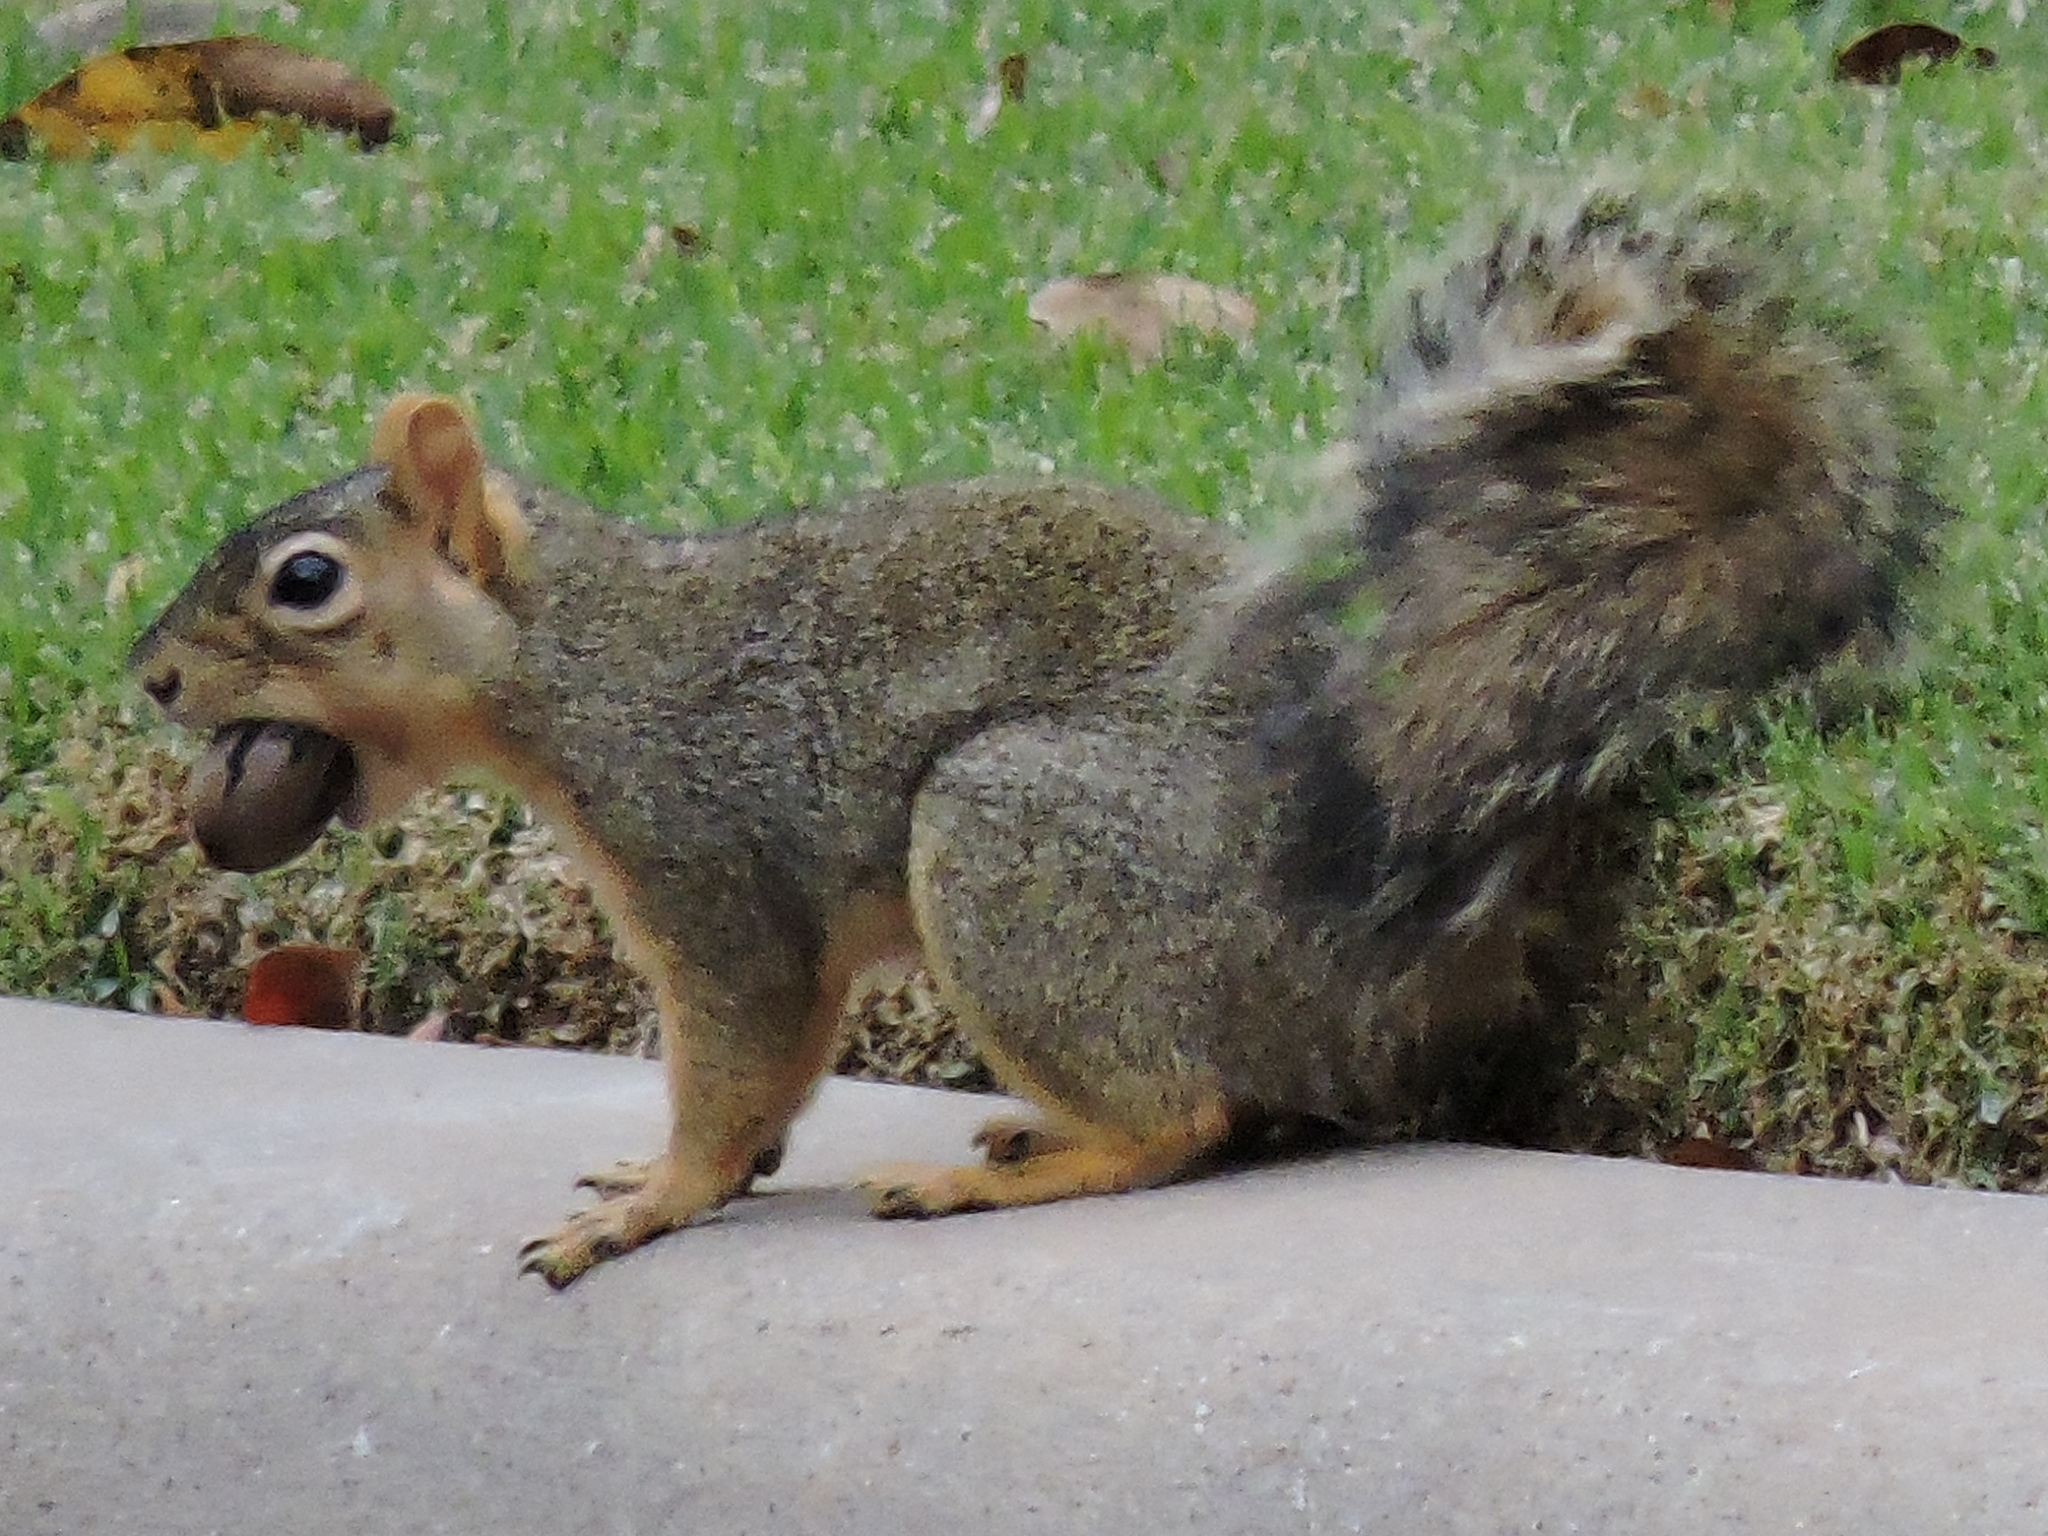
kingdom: Animalia
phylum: Chordata
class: Mammalia
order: Rodentia
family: Sciuridae
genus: Sciurus
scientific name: Sciurus niger
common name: Fox squirrel
